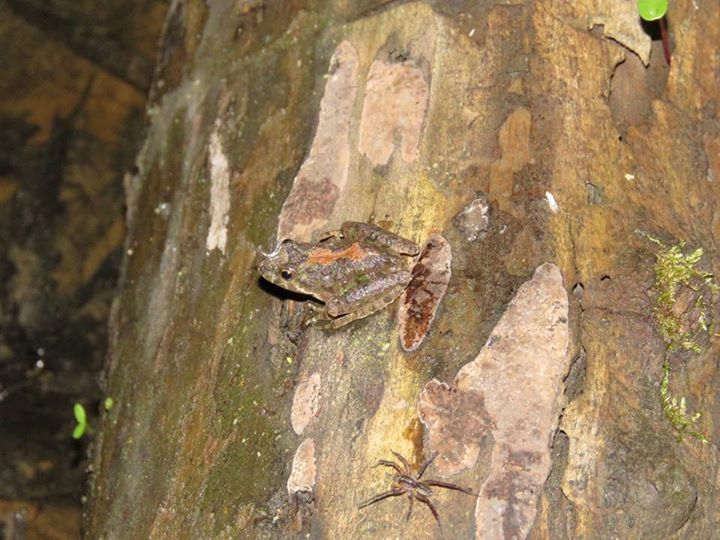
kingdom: Animalia
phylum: Chordata
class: Amphibia
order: Anura
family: Hylidae
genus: Acris
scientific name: Acris blanchardi
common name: Blanchard's cricket frog
